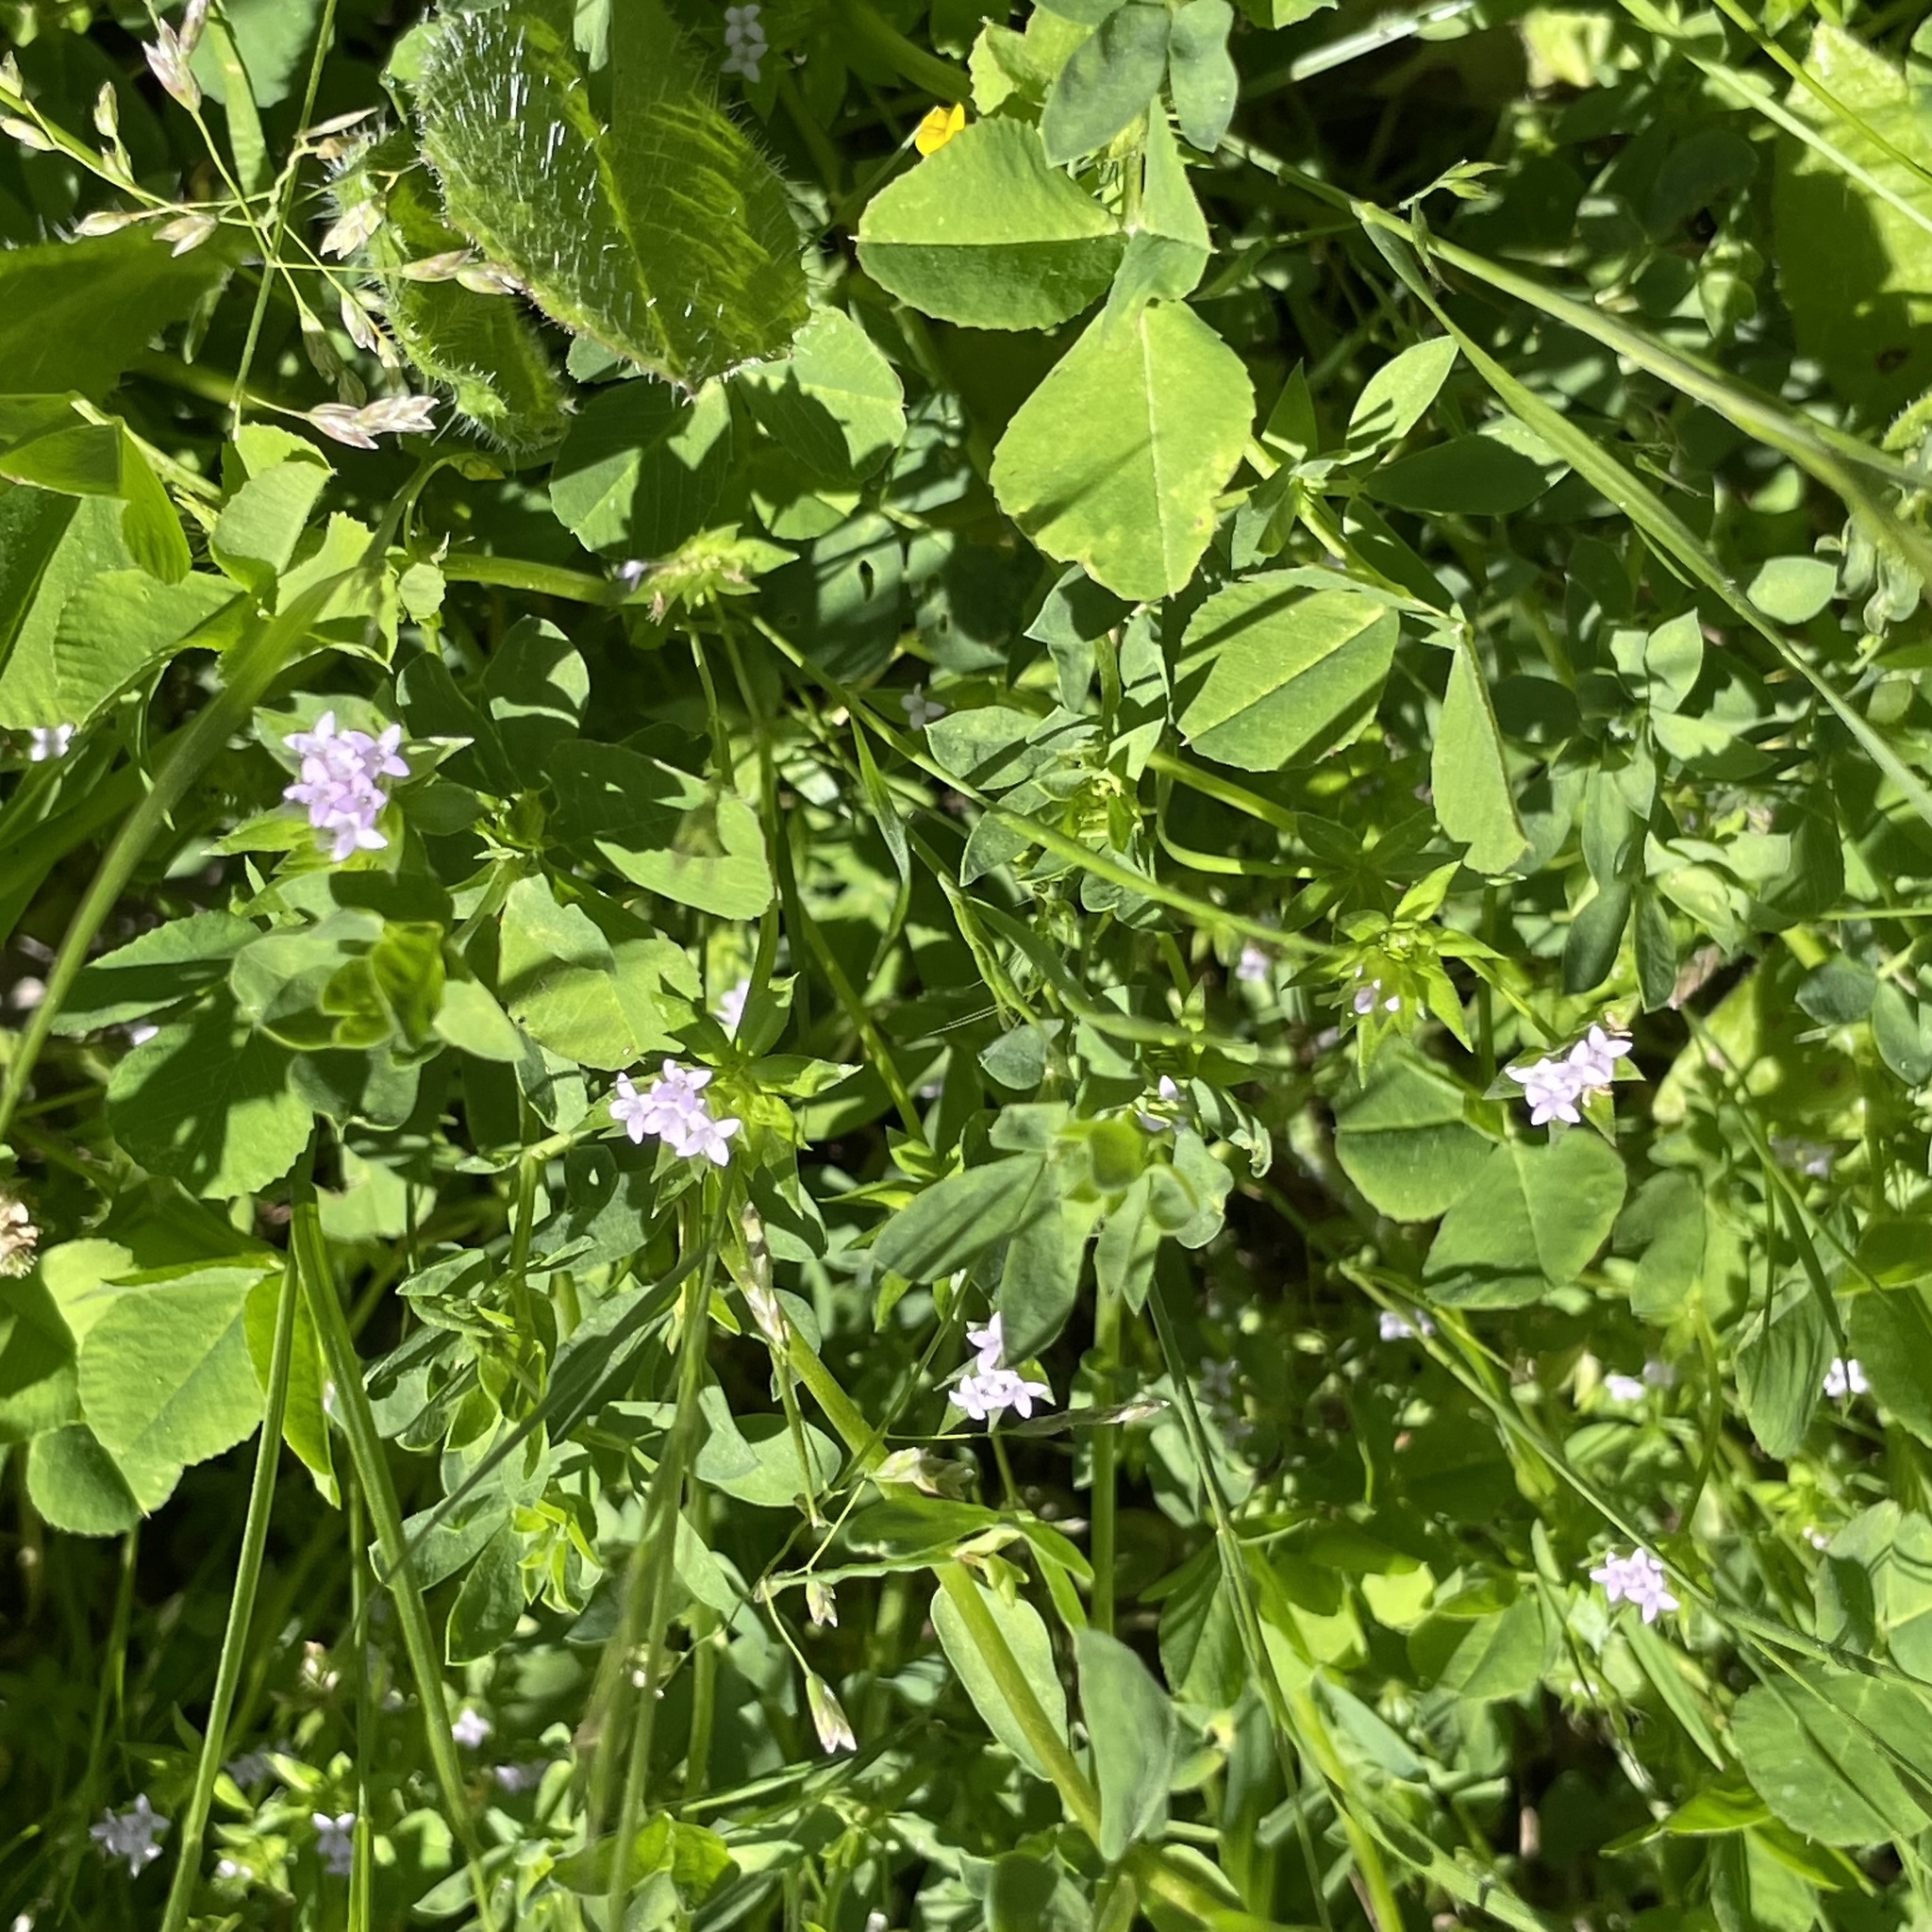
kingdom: Plantae
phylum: Tracheophyta
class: Magnoliopsida
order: Gentianales
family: Rubiaceae
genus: Sherardia
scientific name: Sherardia arvensis
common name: Field madder
